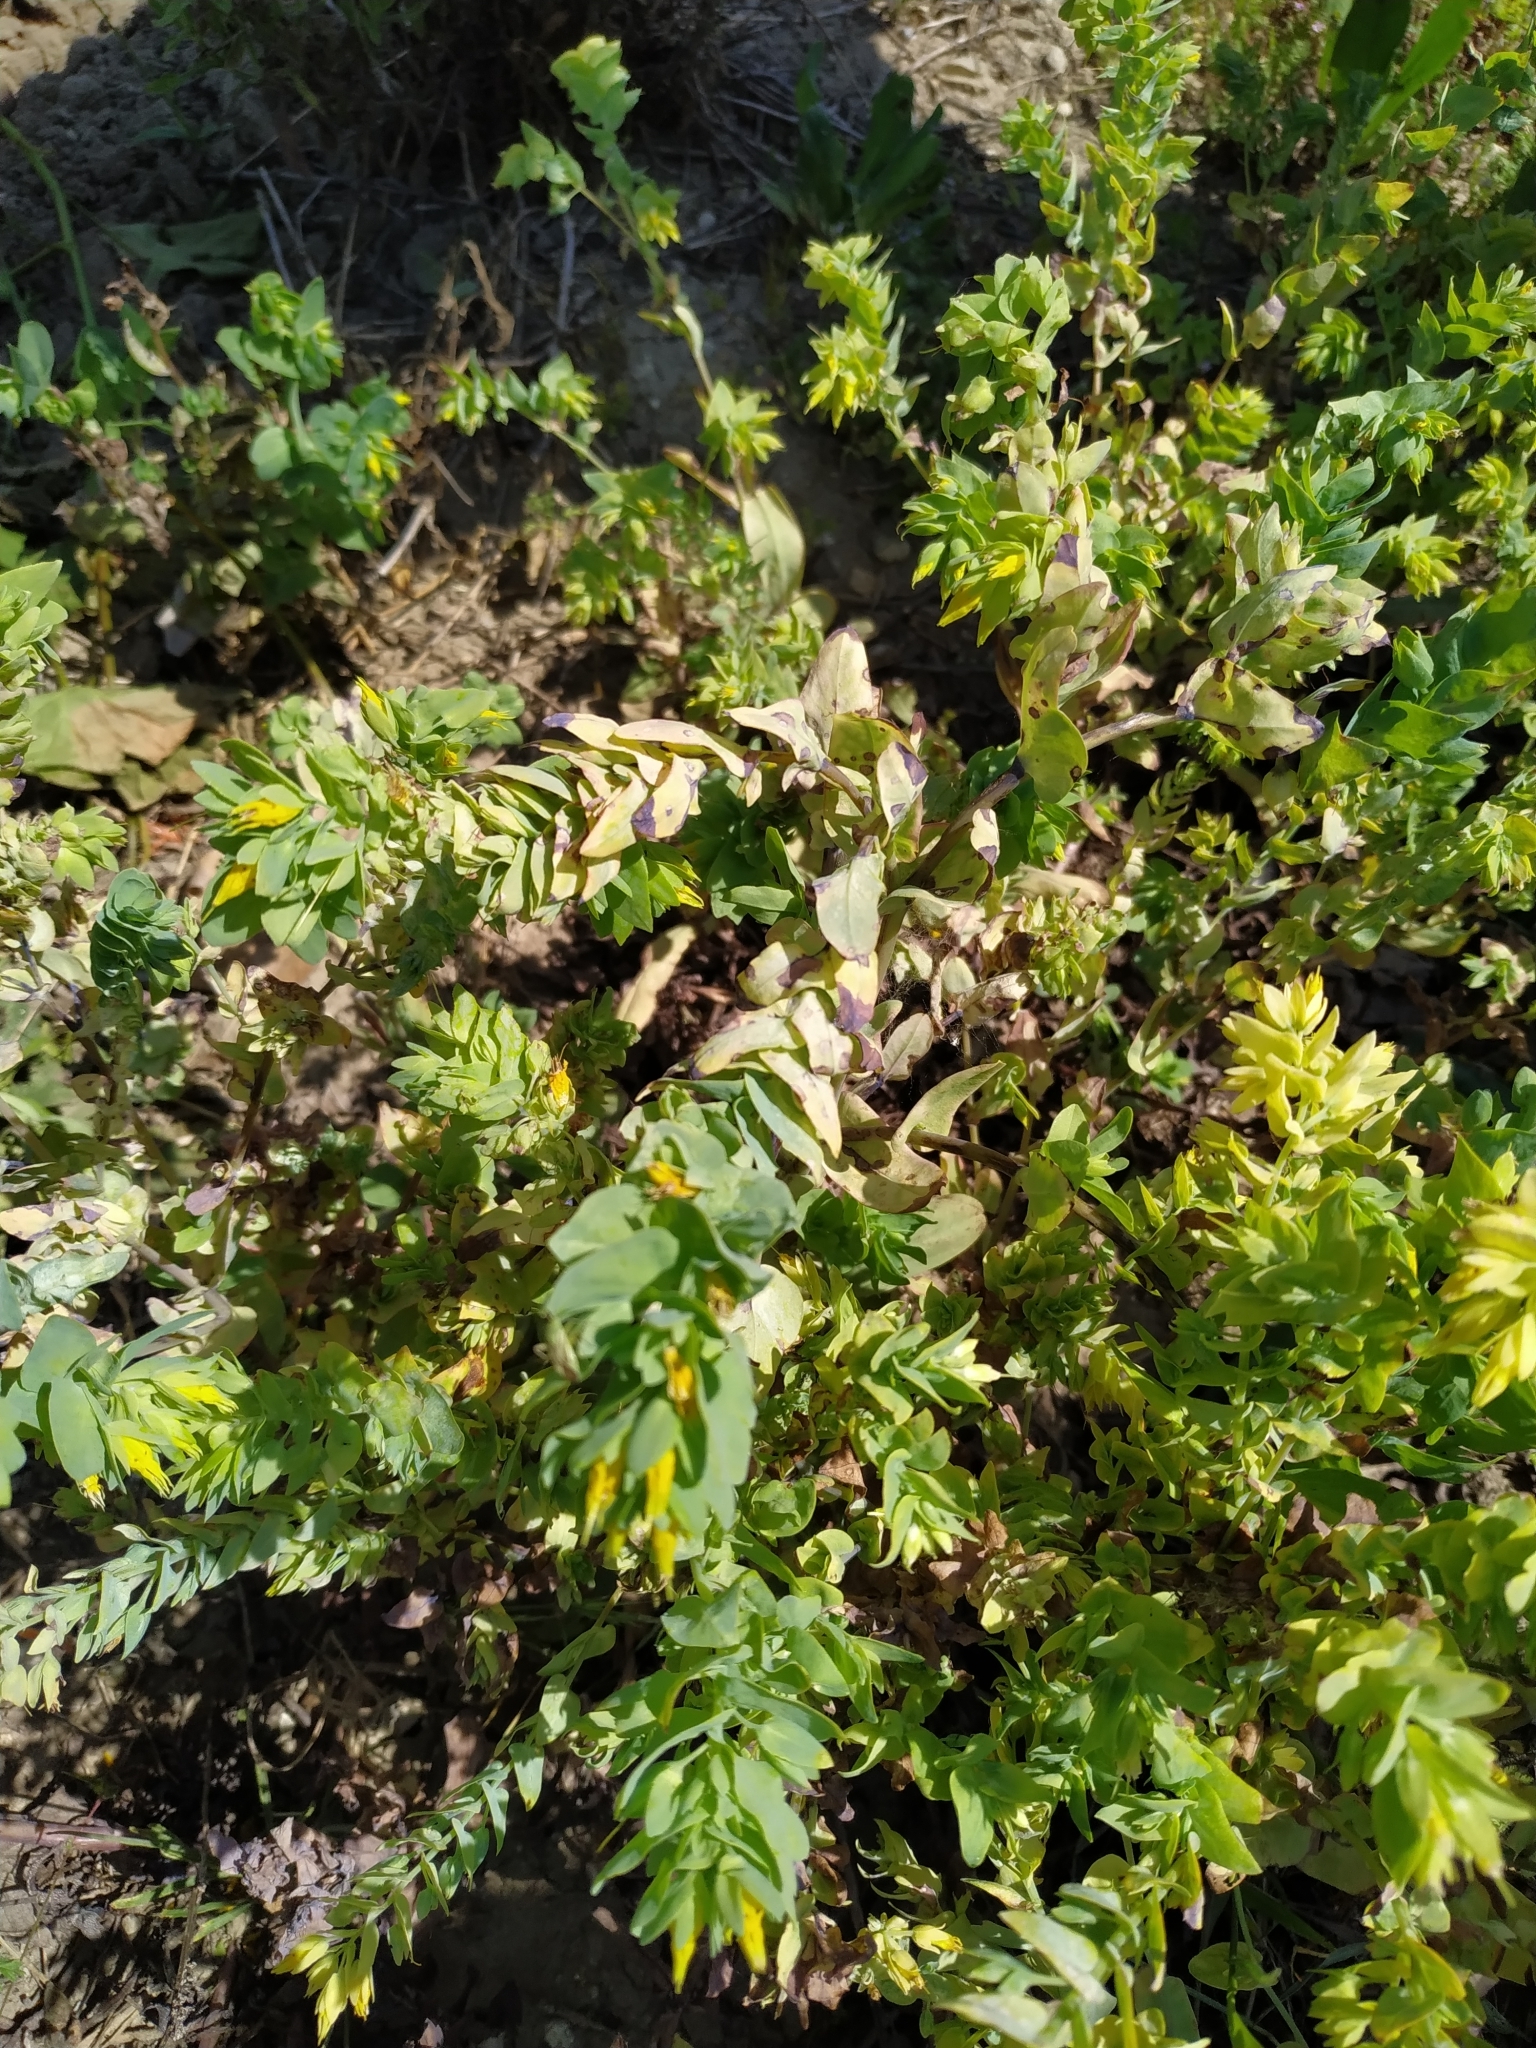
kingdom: Plantae
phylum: Tracheophyta
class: Magnoliopsida
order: Boraginales
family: Boraginaceae
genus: Cerinthe
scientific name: Cerinthe minor
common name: Lesser honeywort
